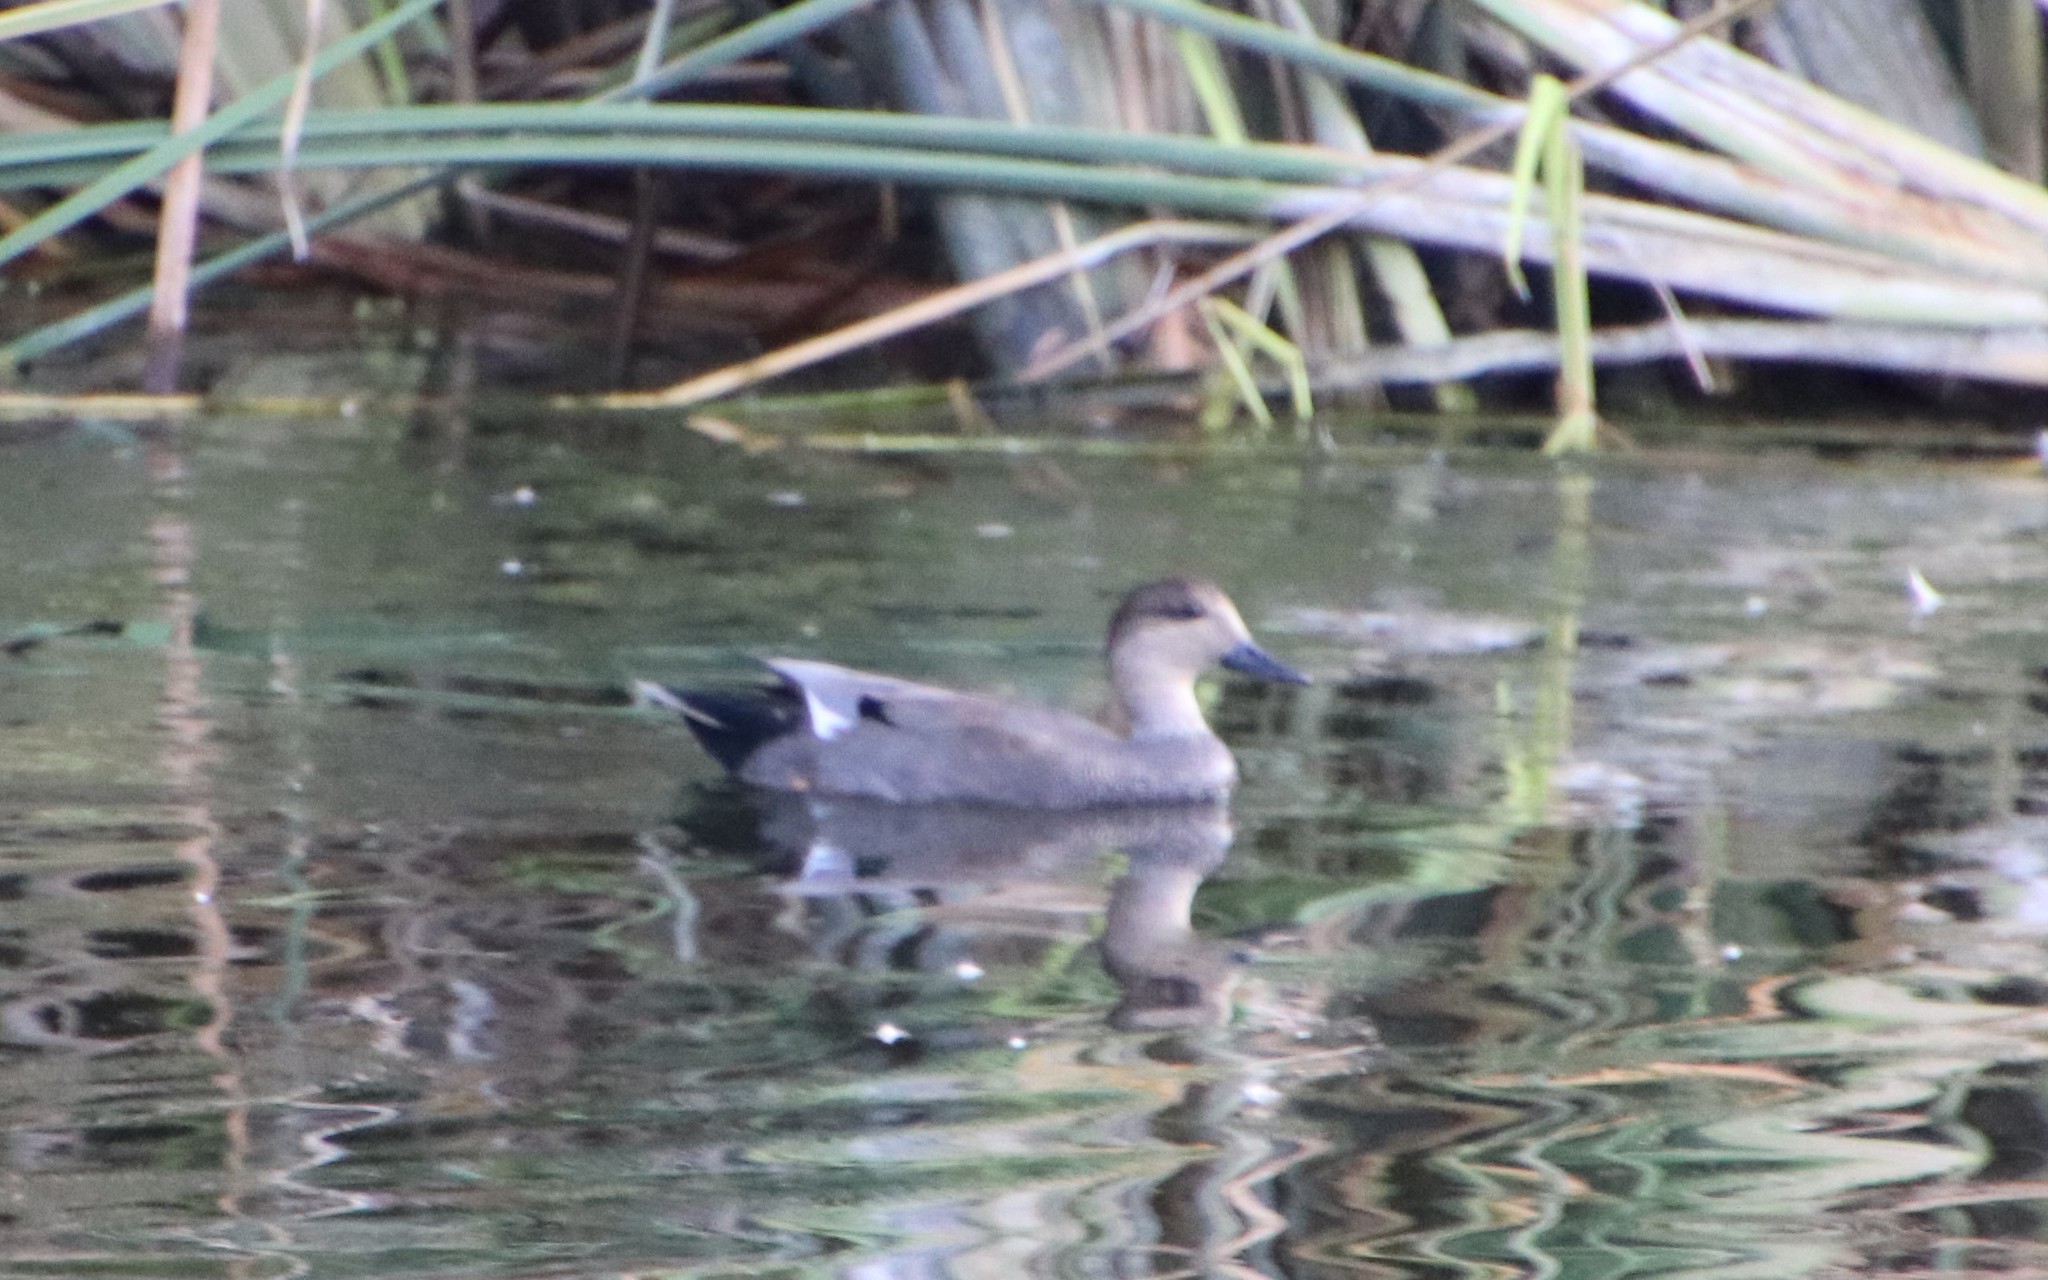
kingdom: Animalia
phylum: Chordata
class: Aves
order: Anseriformes
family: Anatidae
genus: Mareca
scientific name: Mareca strepera
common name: Gadwall
